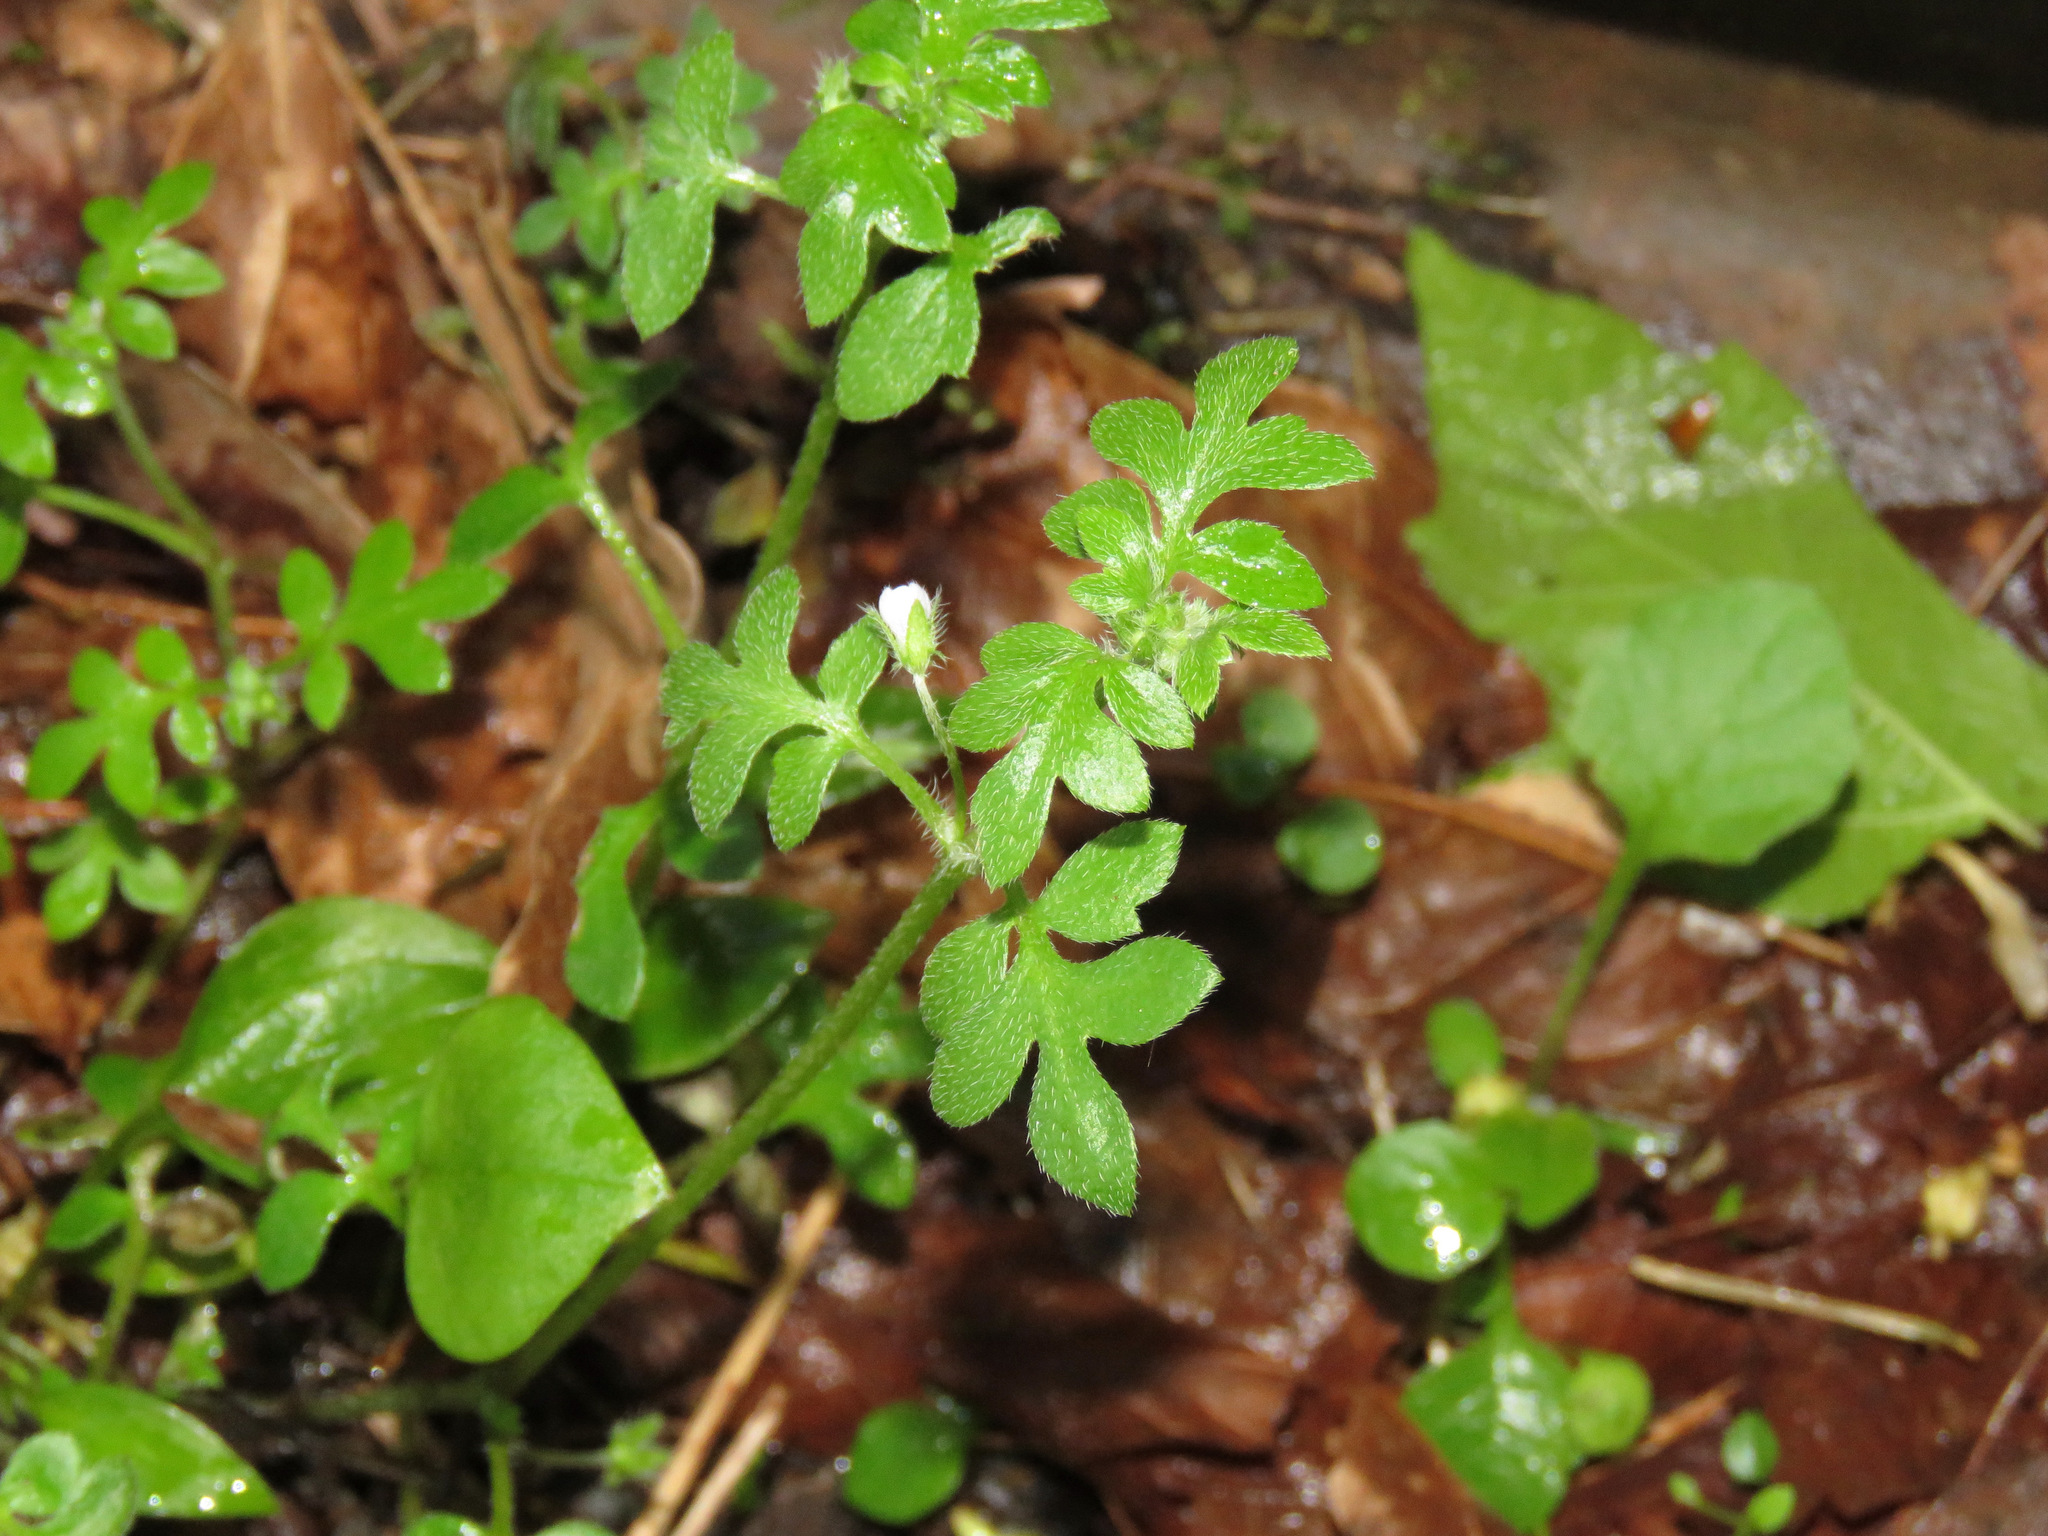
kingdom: Plantae
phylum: Tracheophyta
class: Magnoliopsida
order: Boraginales
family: Hydrophyllaceae
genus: Nemophila
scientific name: Nemophila parviflora
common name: Small-flowered baby-blue-eyes
